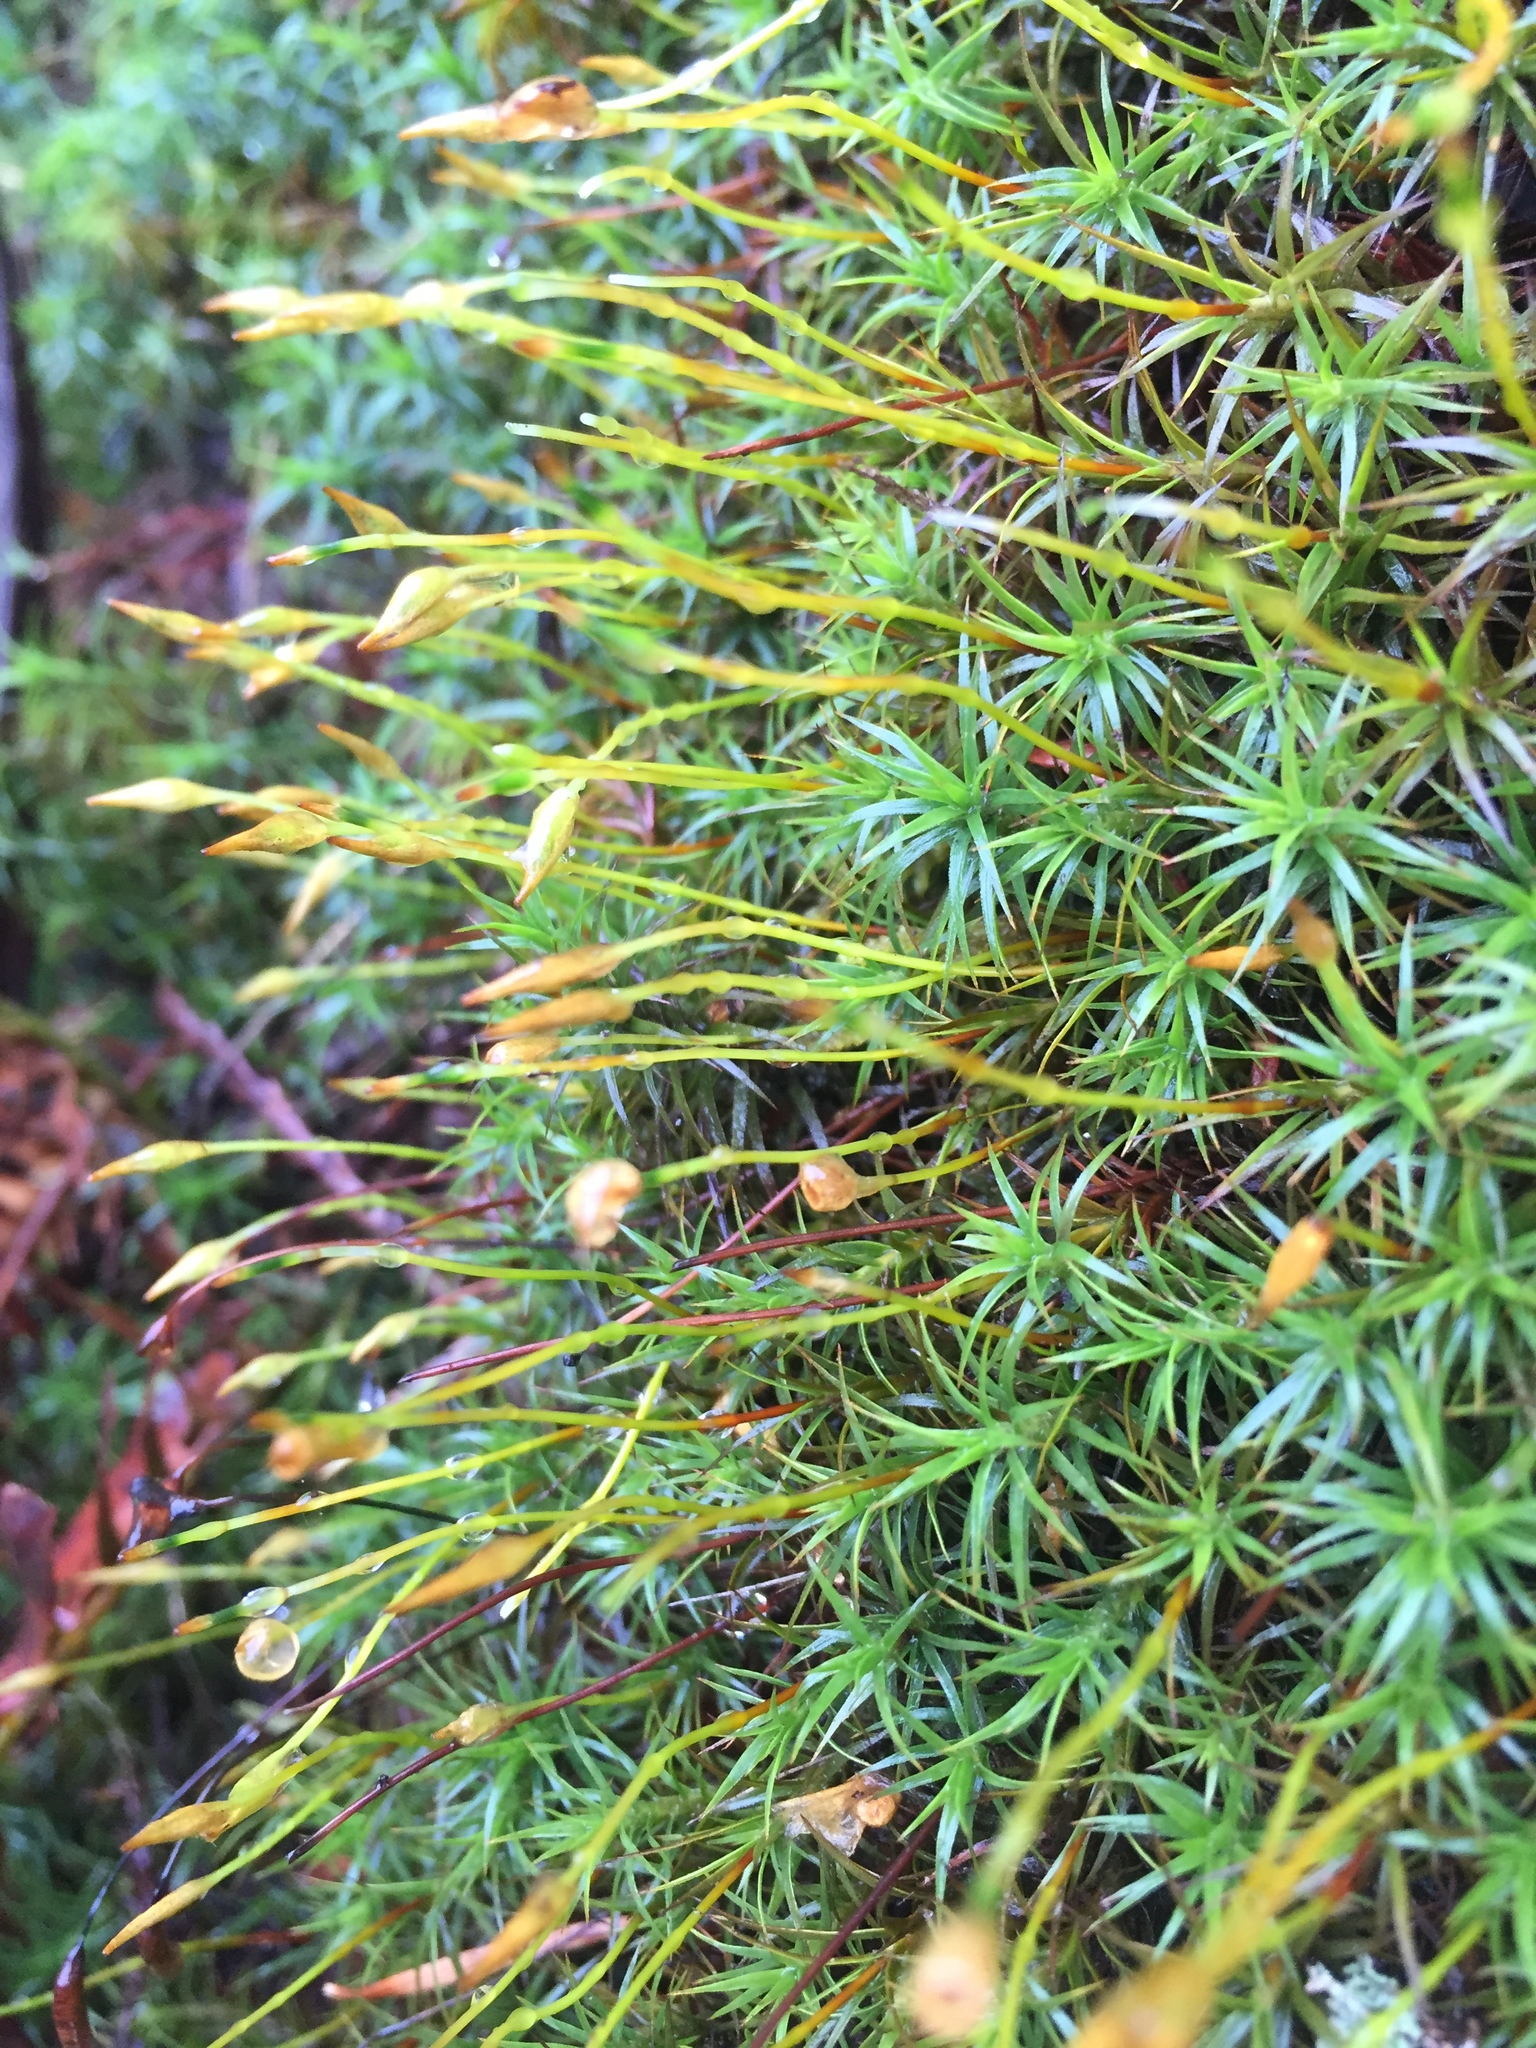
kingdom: Plantae
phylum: Bryophyta
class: Polytrichopsida
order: Polytrichales
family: Polytrichaceae
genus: Polytrichum
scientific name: Polytrichum juniperinum
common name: Juniper haircap moss
